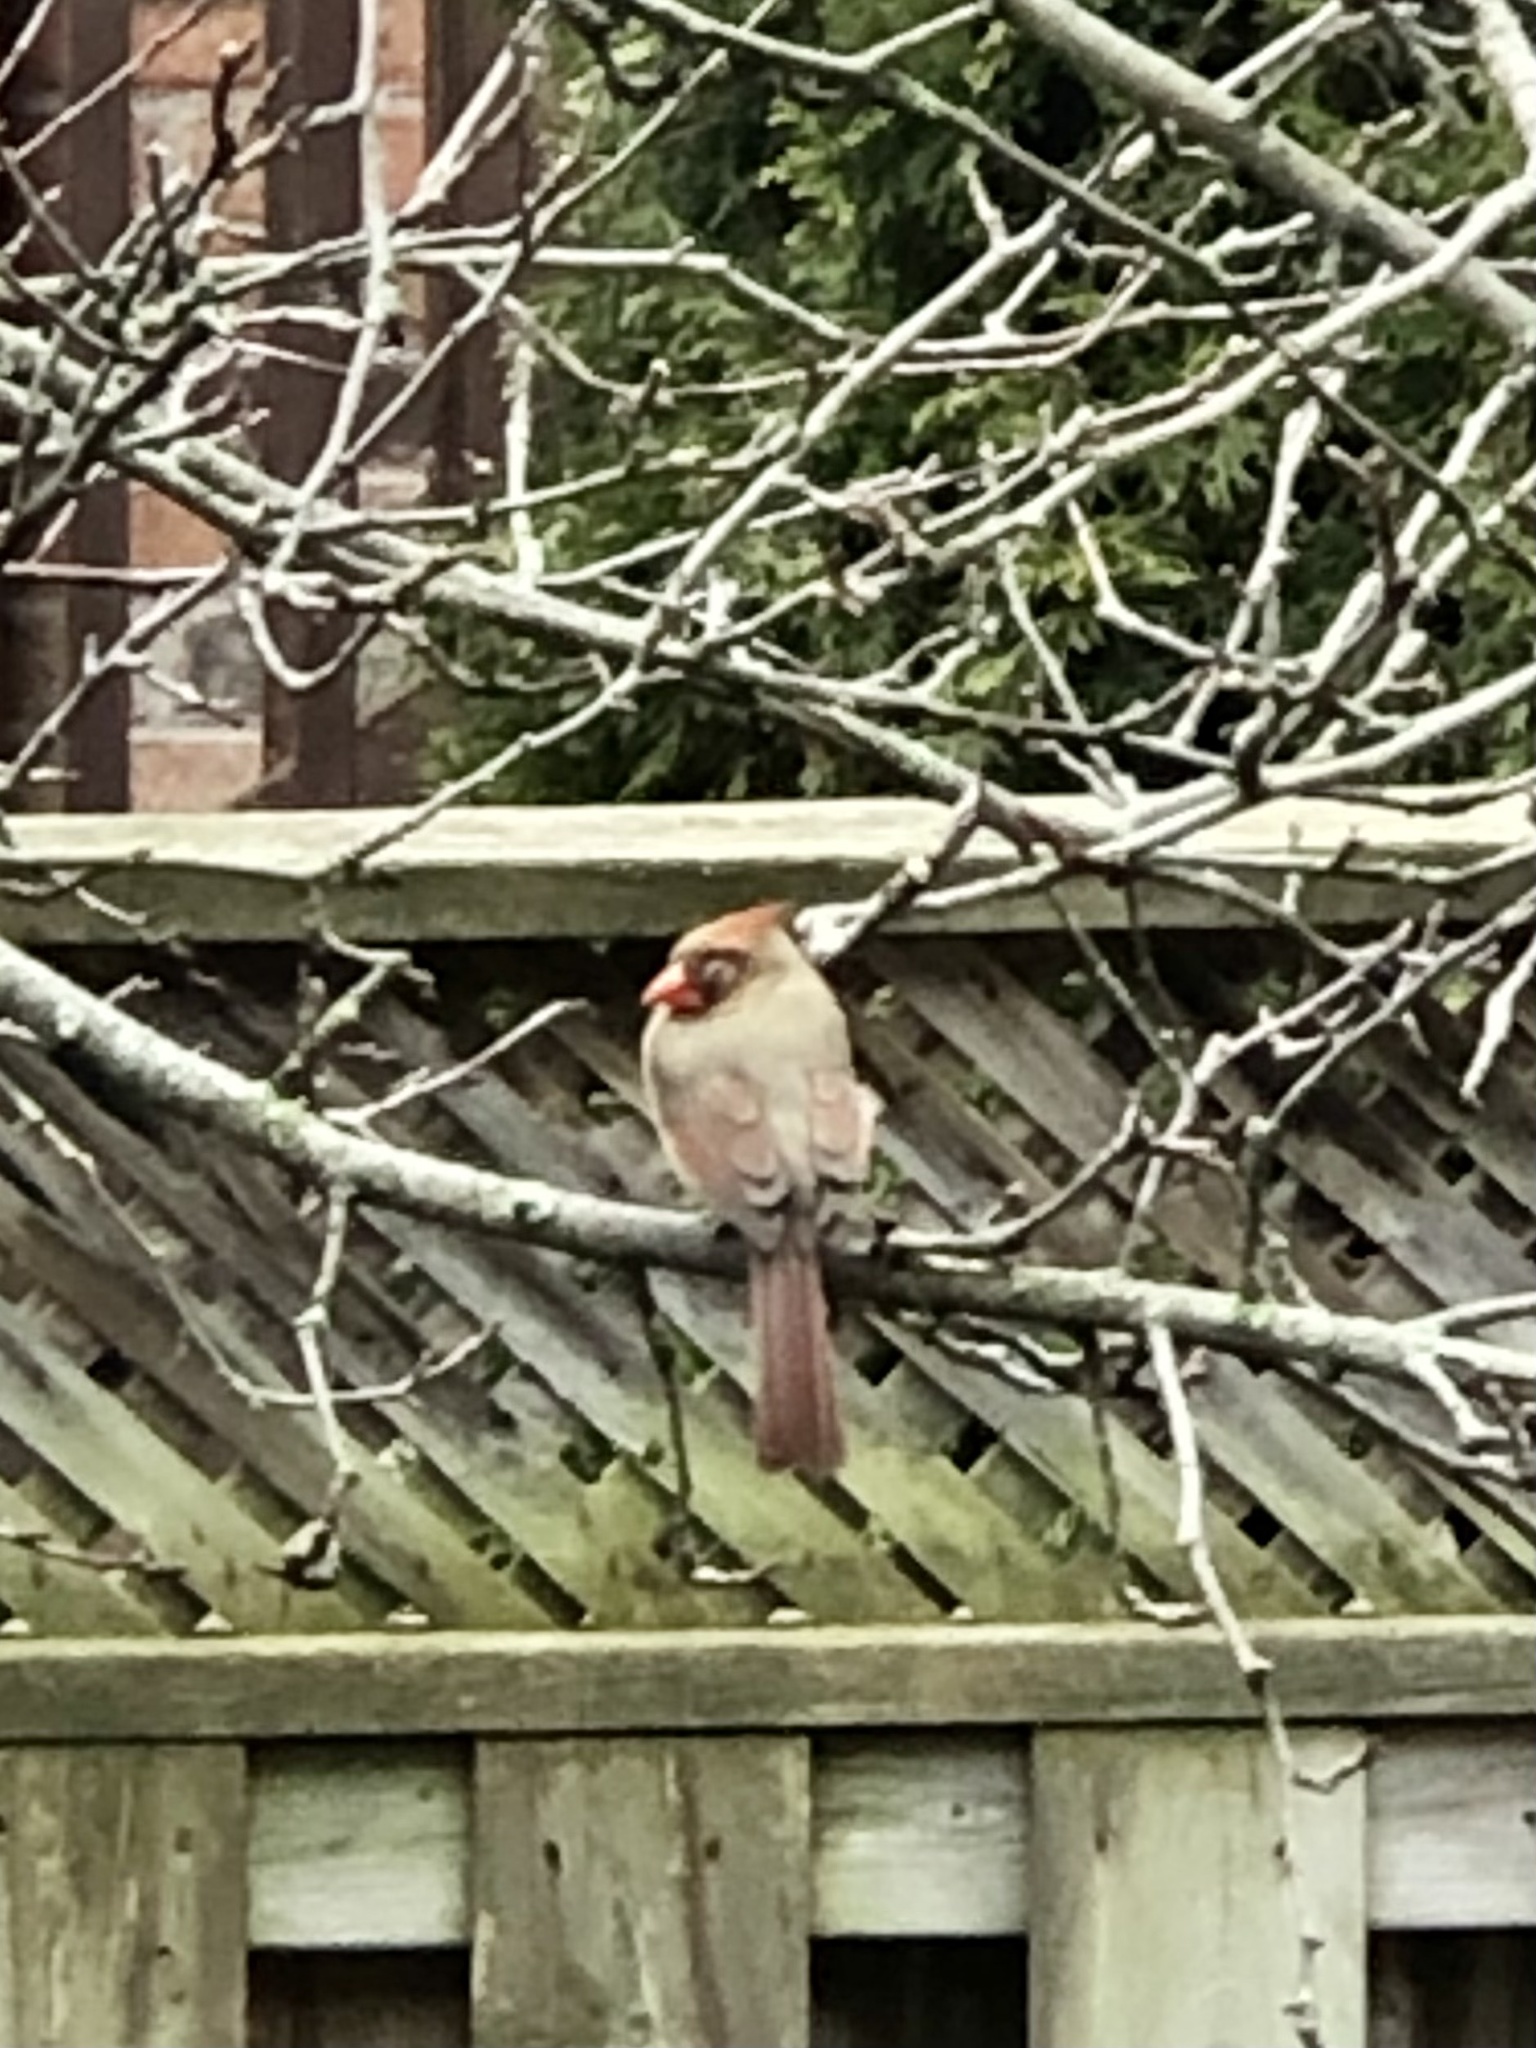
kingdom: Animalia
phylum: Chordata
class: Aves
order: Passeriformes
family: Cardinalidae
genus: Cardinalis
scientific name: Cardinalis cardinalis
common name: Northern cardinal
